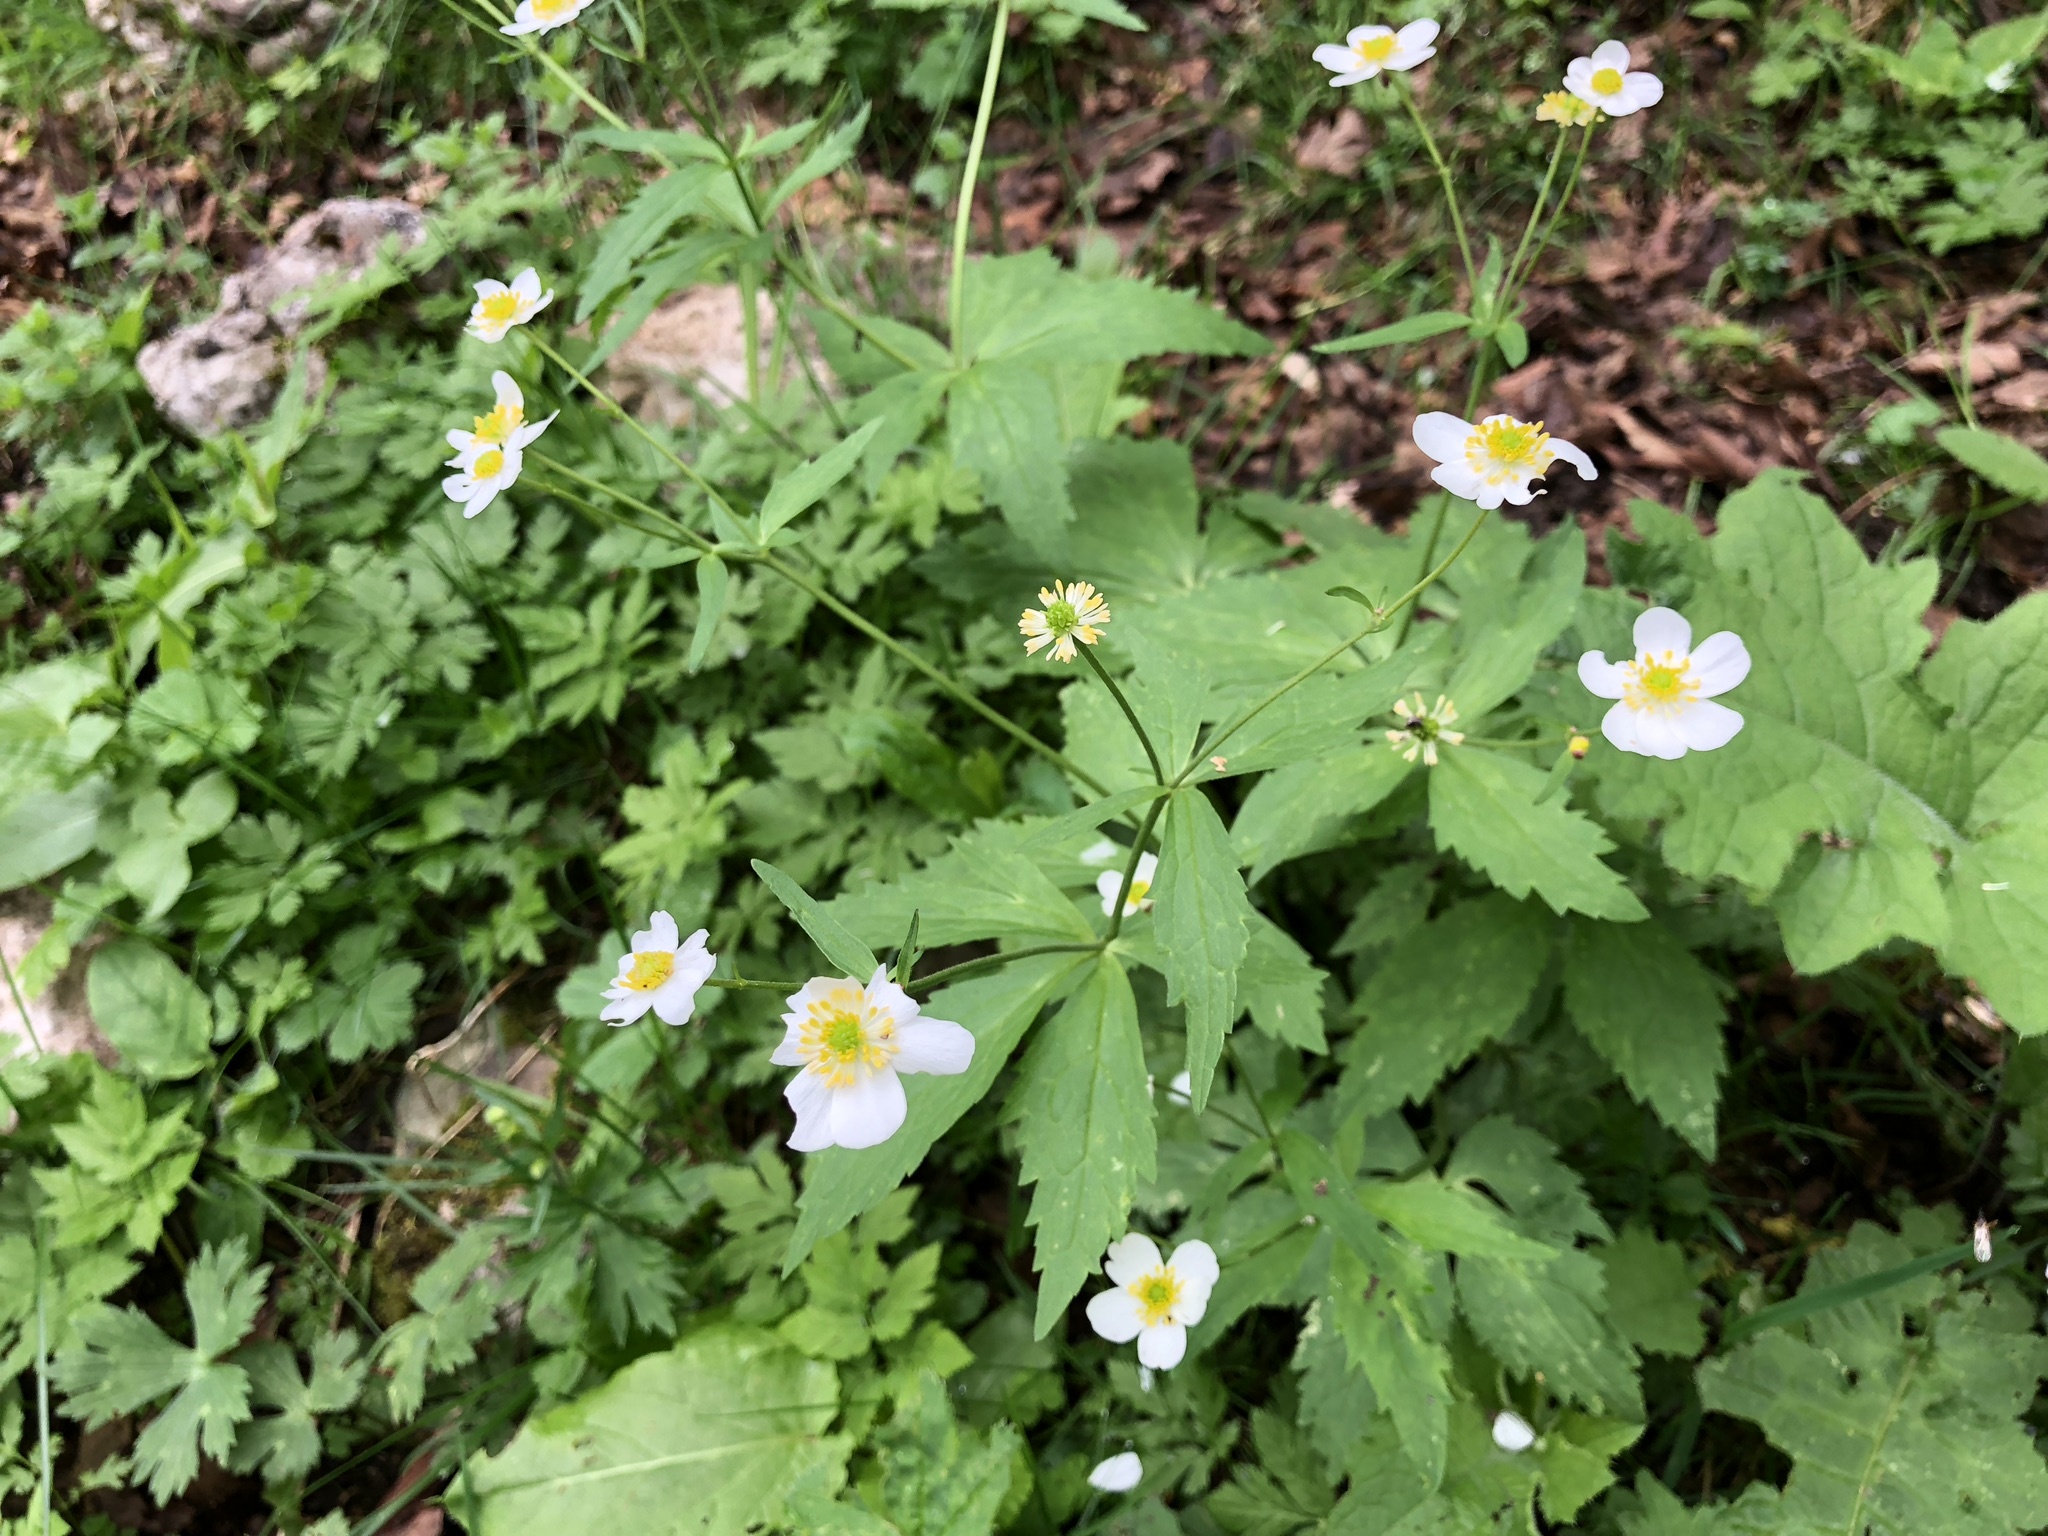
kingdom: Plantae
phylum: Tracheophyta
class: Magnoliopsida
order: Ranunculales
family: Ranunculaceae
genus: Ranunculus
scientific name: Ranunculus aconitifolius
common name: Aconite-leaved buttercup
